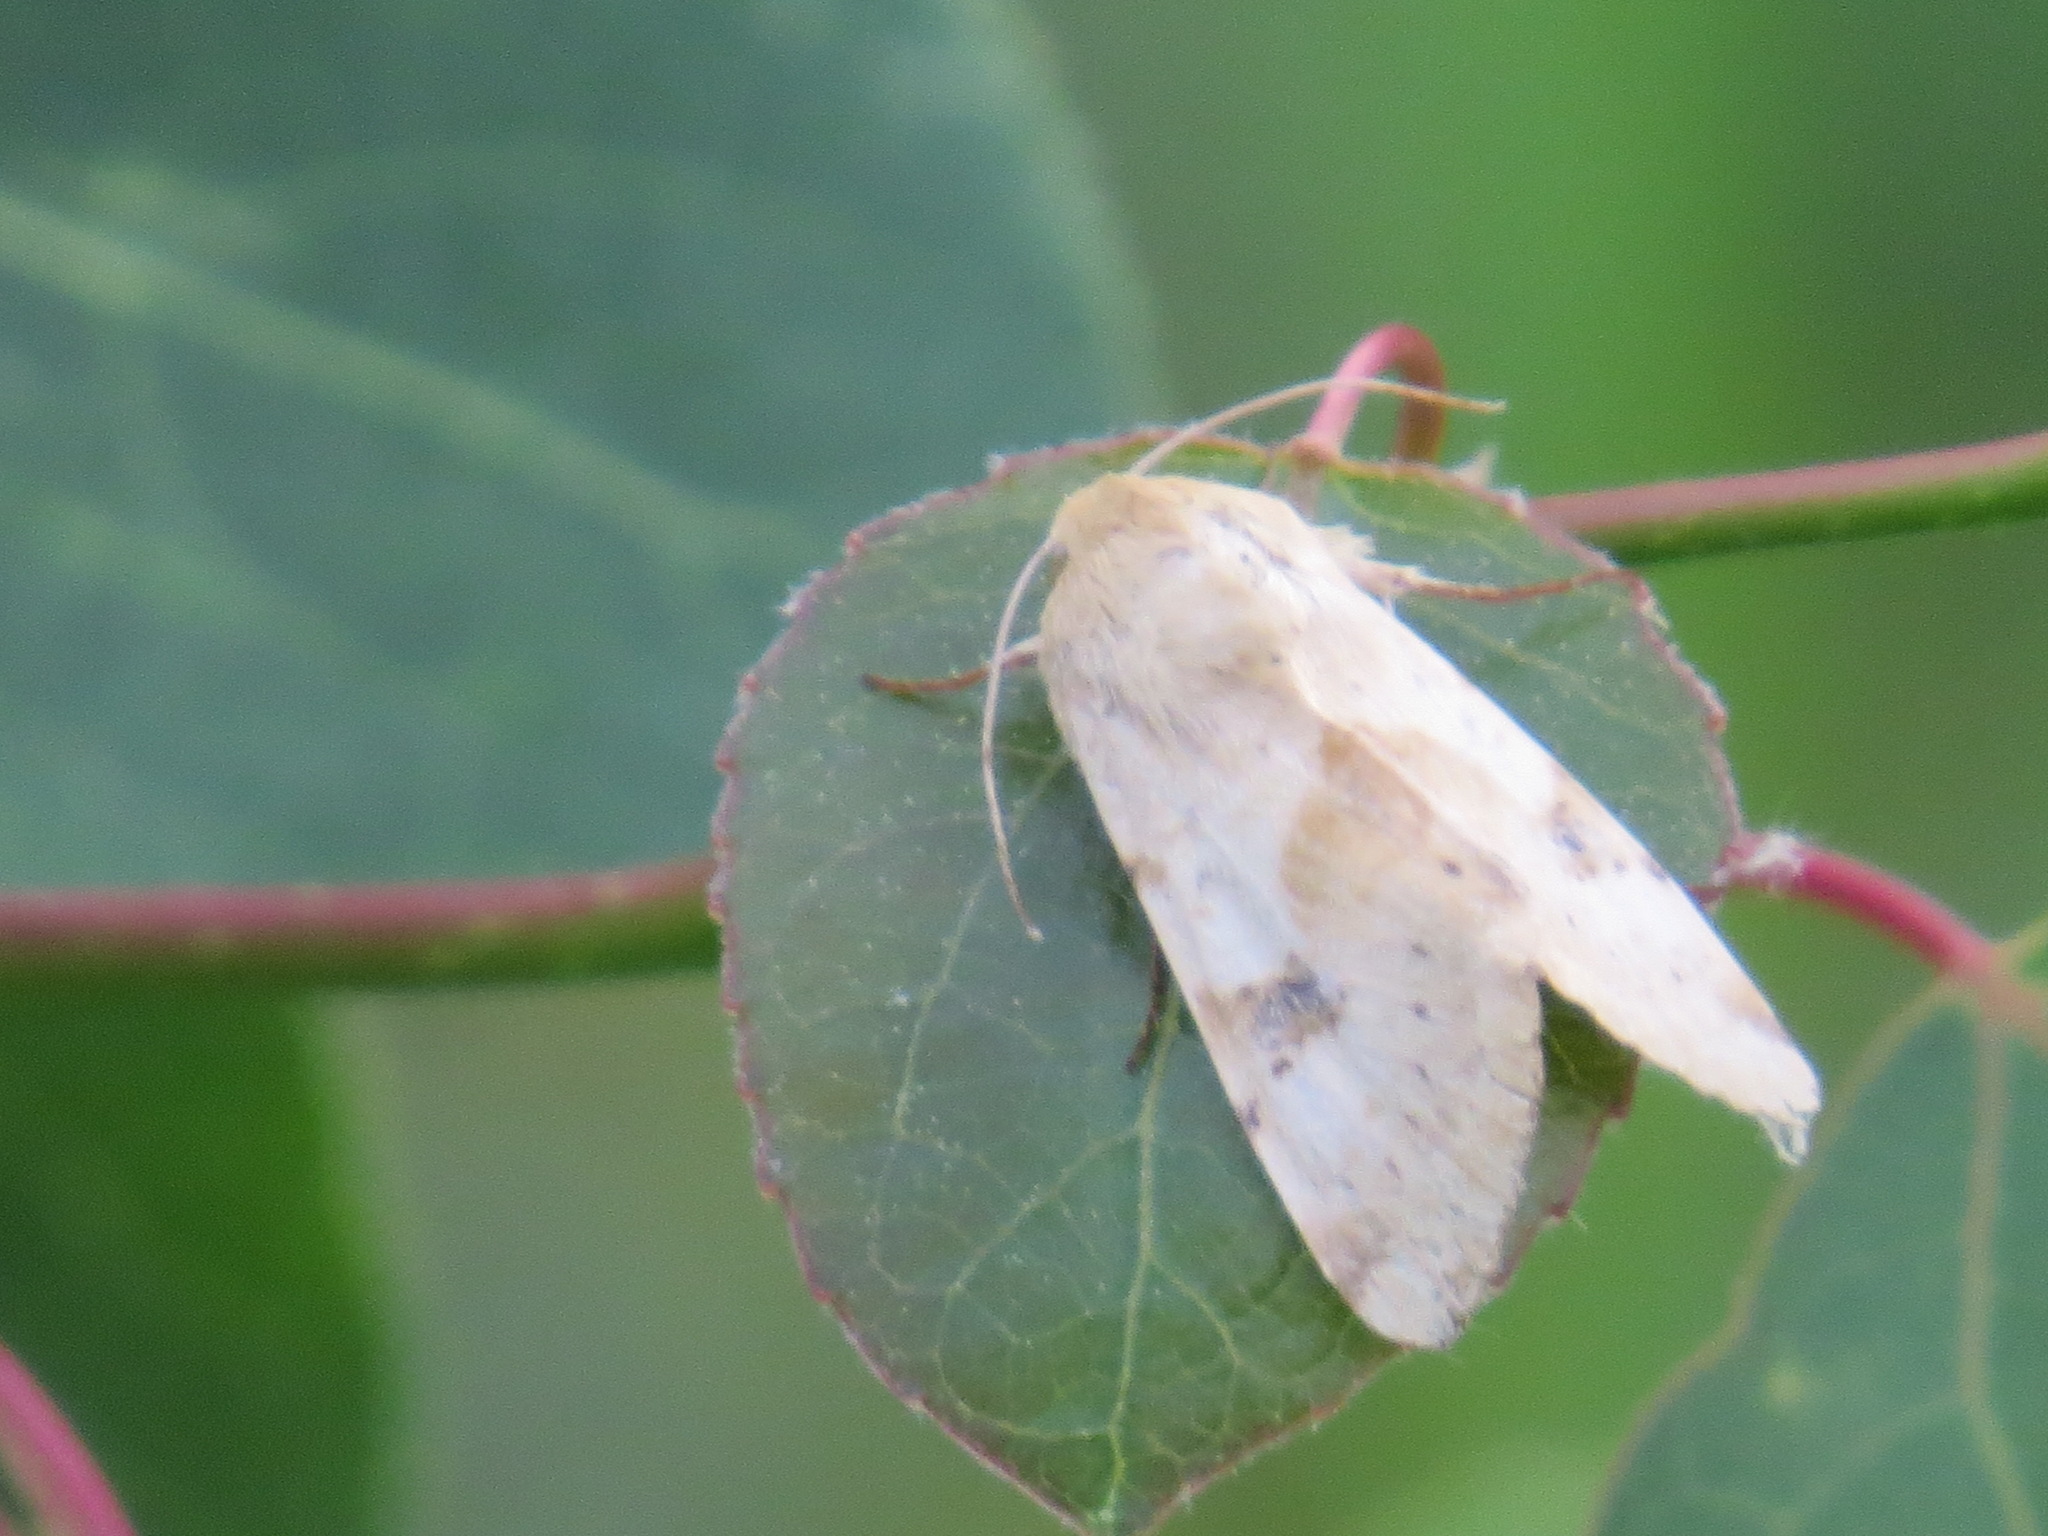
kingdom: Animalia
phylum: Arthropoda
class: Insecta
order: Lepidoptera
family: Noctuidae
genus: Heliothis
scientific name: Heliothis phloxiphaga
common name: Darker spotted straw moth
